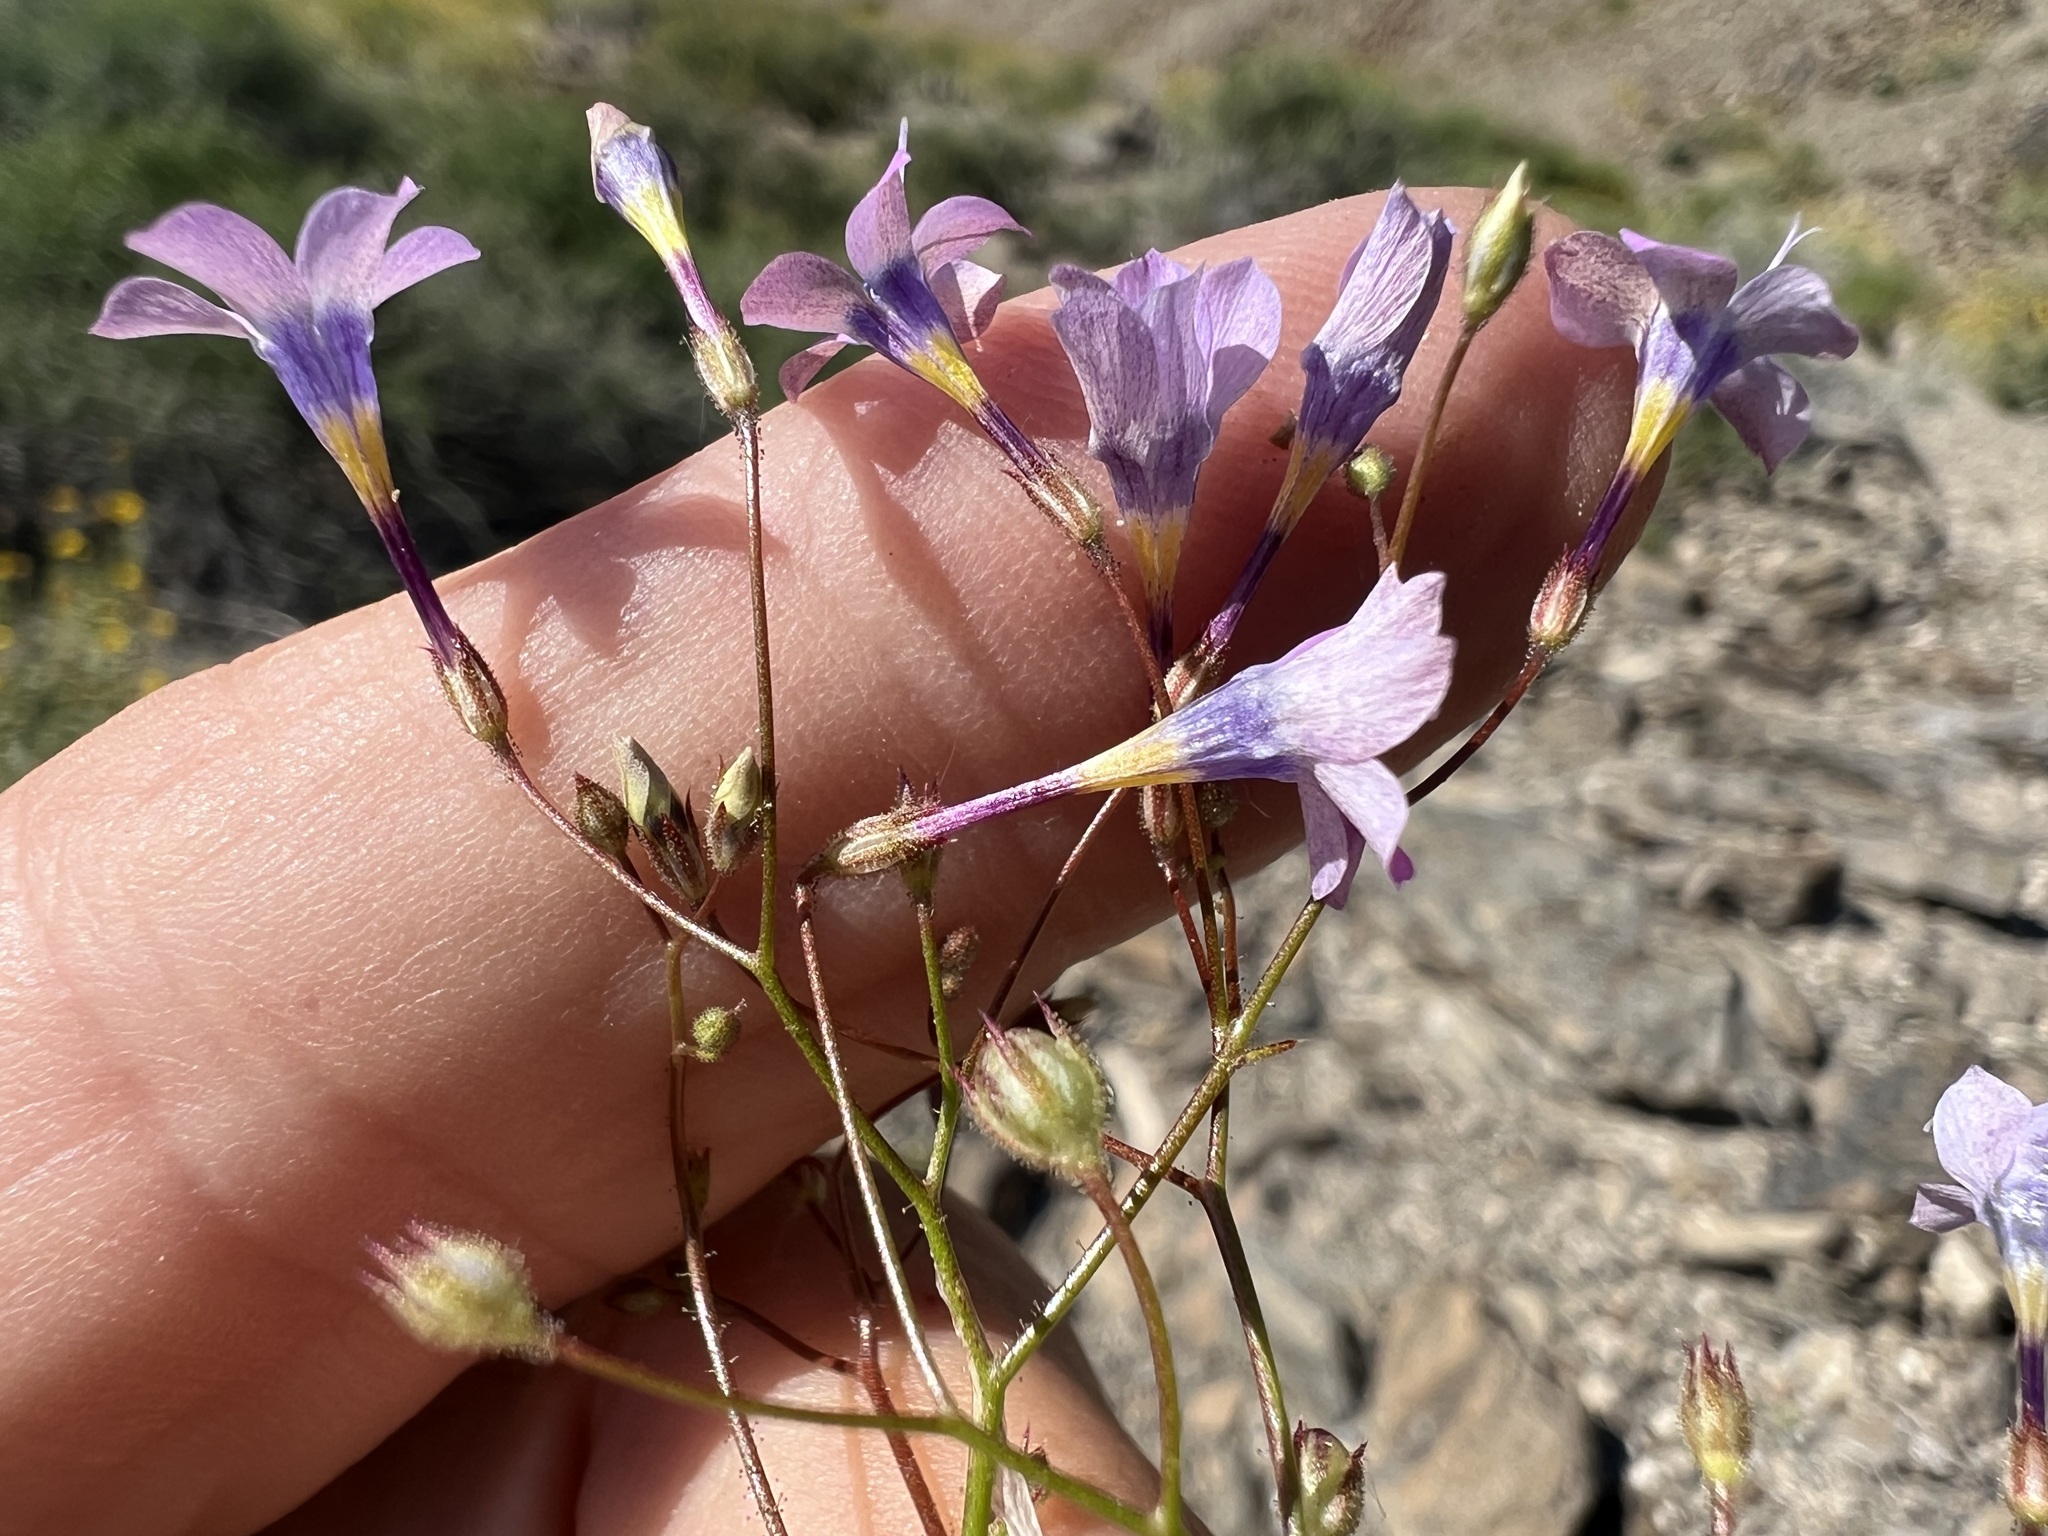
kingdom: Plantae
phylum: Tracheophyta
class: Magnoliopsida
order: Ericales
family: Polemoniaceae
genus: Gilia
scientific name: Gilia cana
